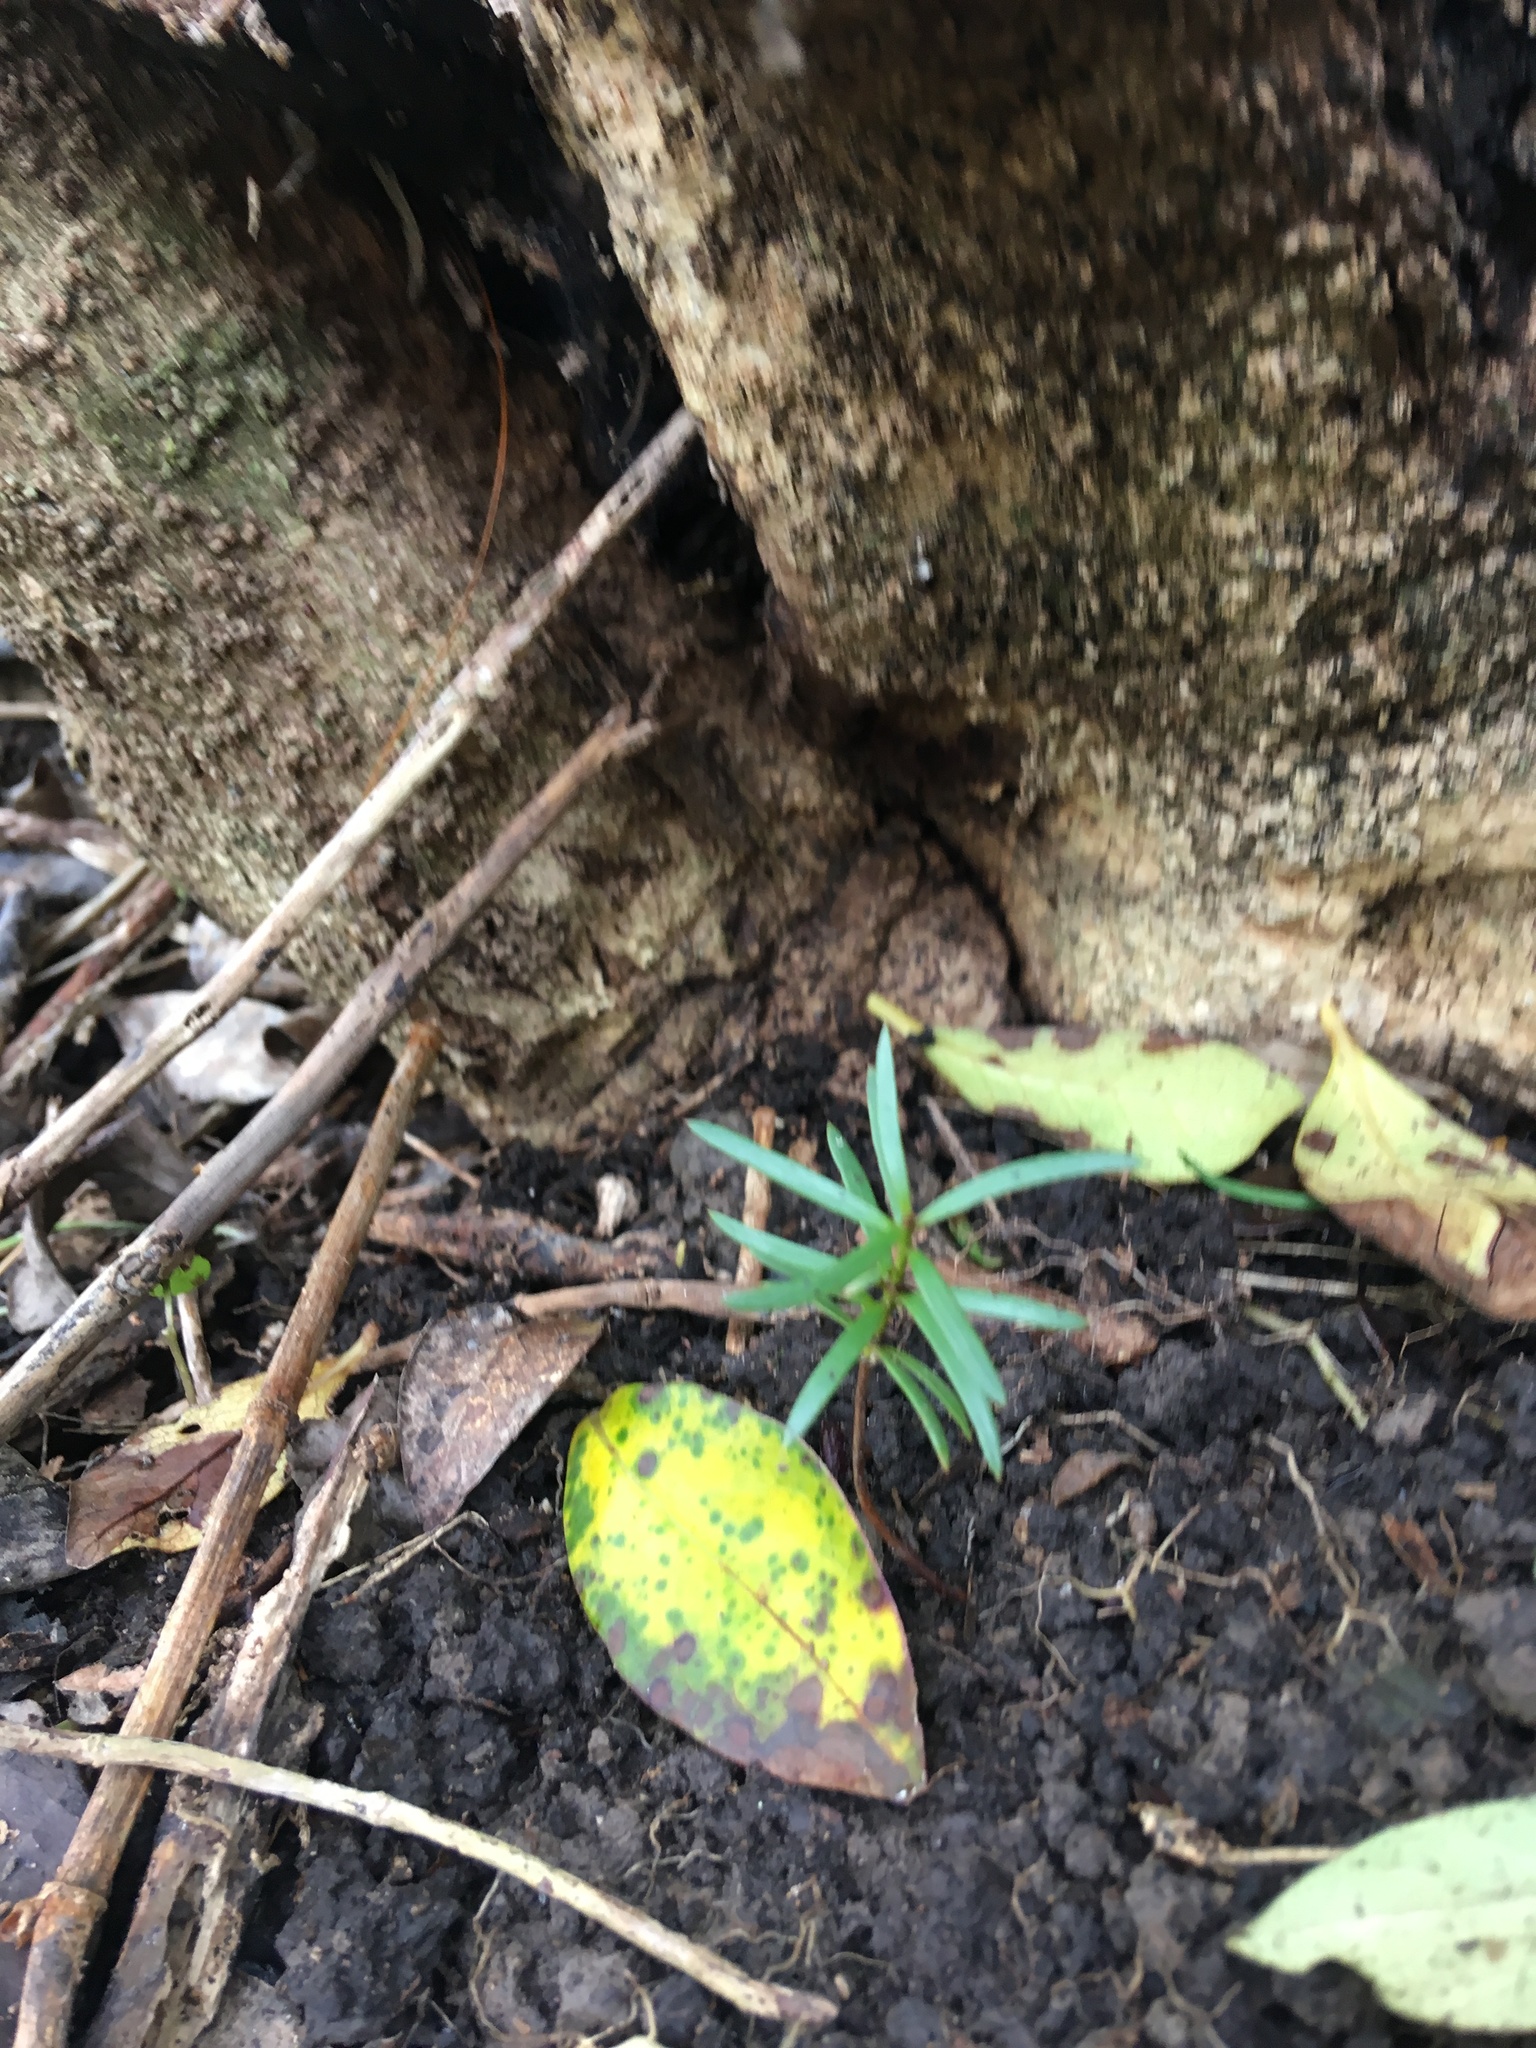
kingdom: Plantae
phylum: Tracheophyta
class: Pinopsida
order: Pinales
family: Podocarpaceae
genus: Podocarpus
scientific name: Podocarpus totara
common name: Totara
